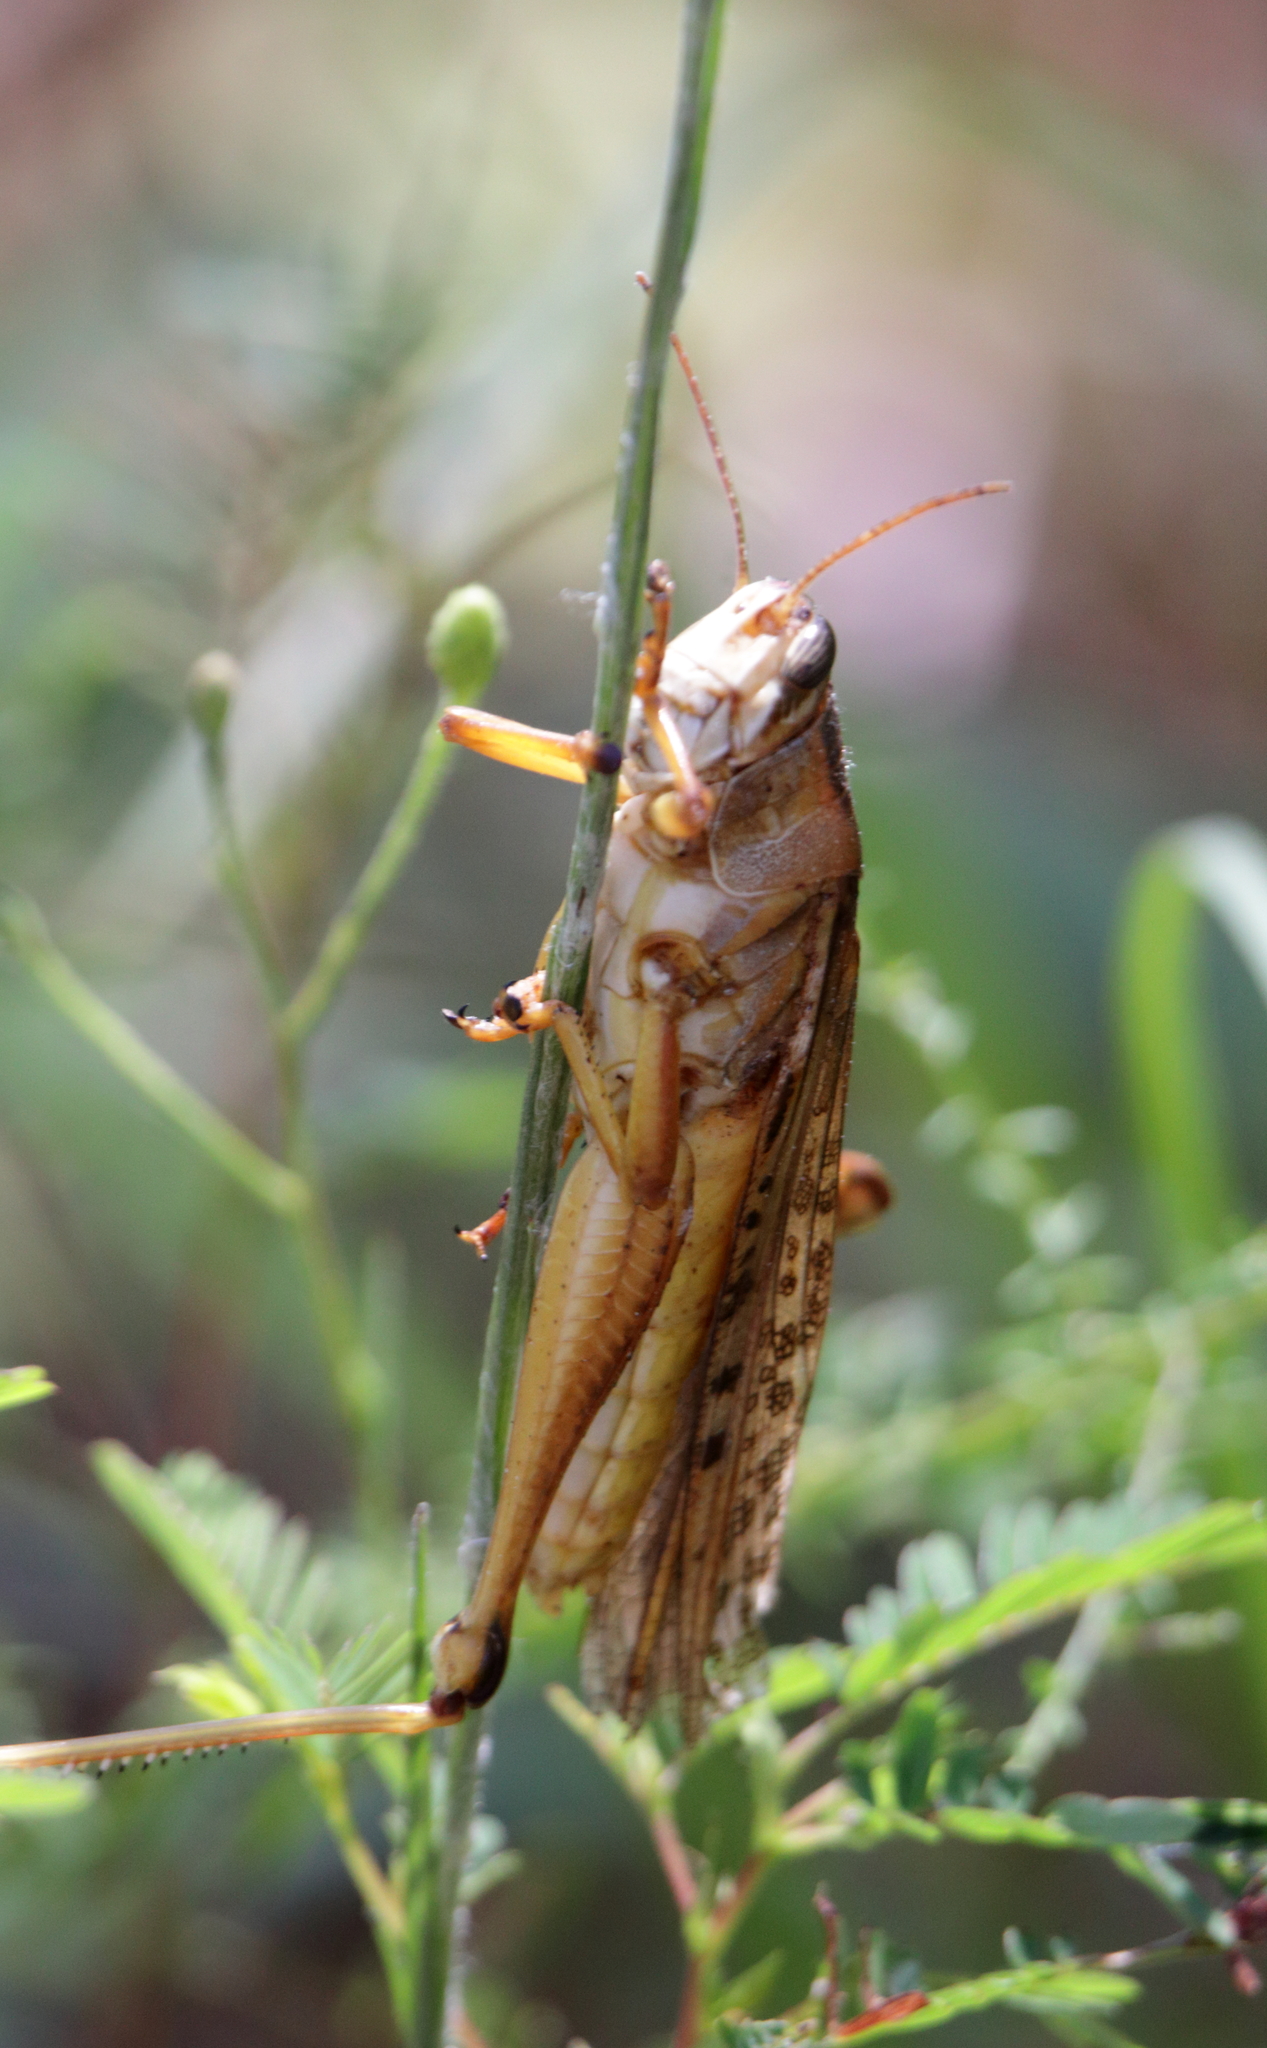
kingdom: Animalia
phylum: Arthropoda
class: Insecta
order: Orthoptera
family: Acrididae
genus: Schistocerca
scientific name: Schistocerca americana
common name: American bird locust
